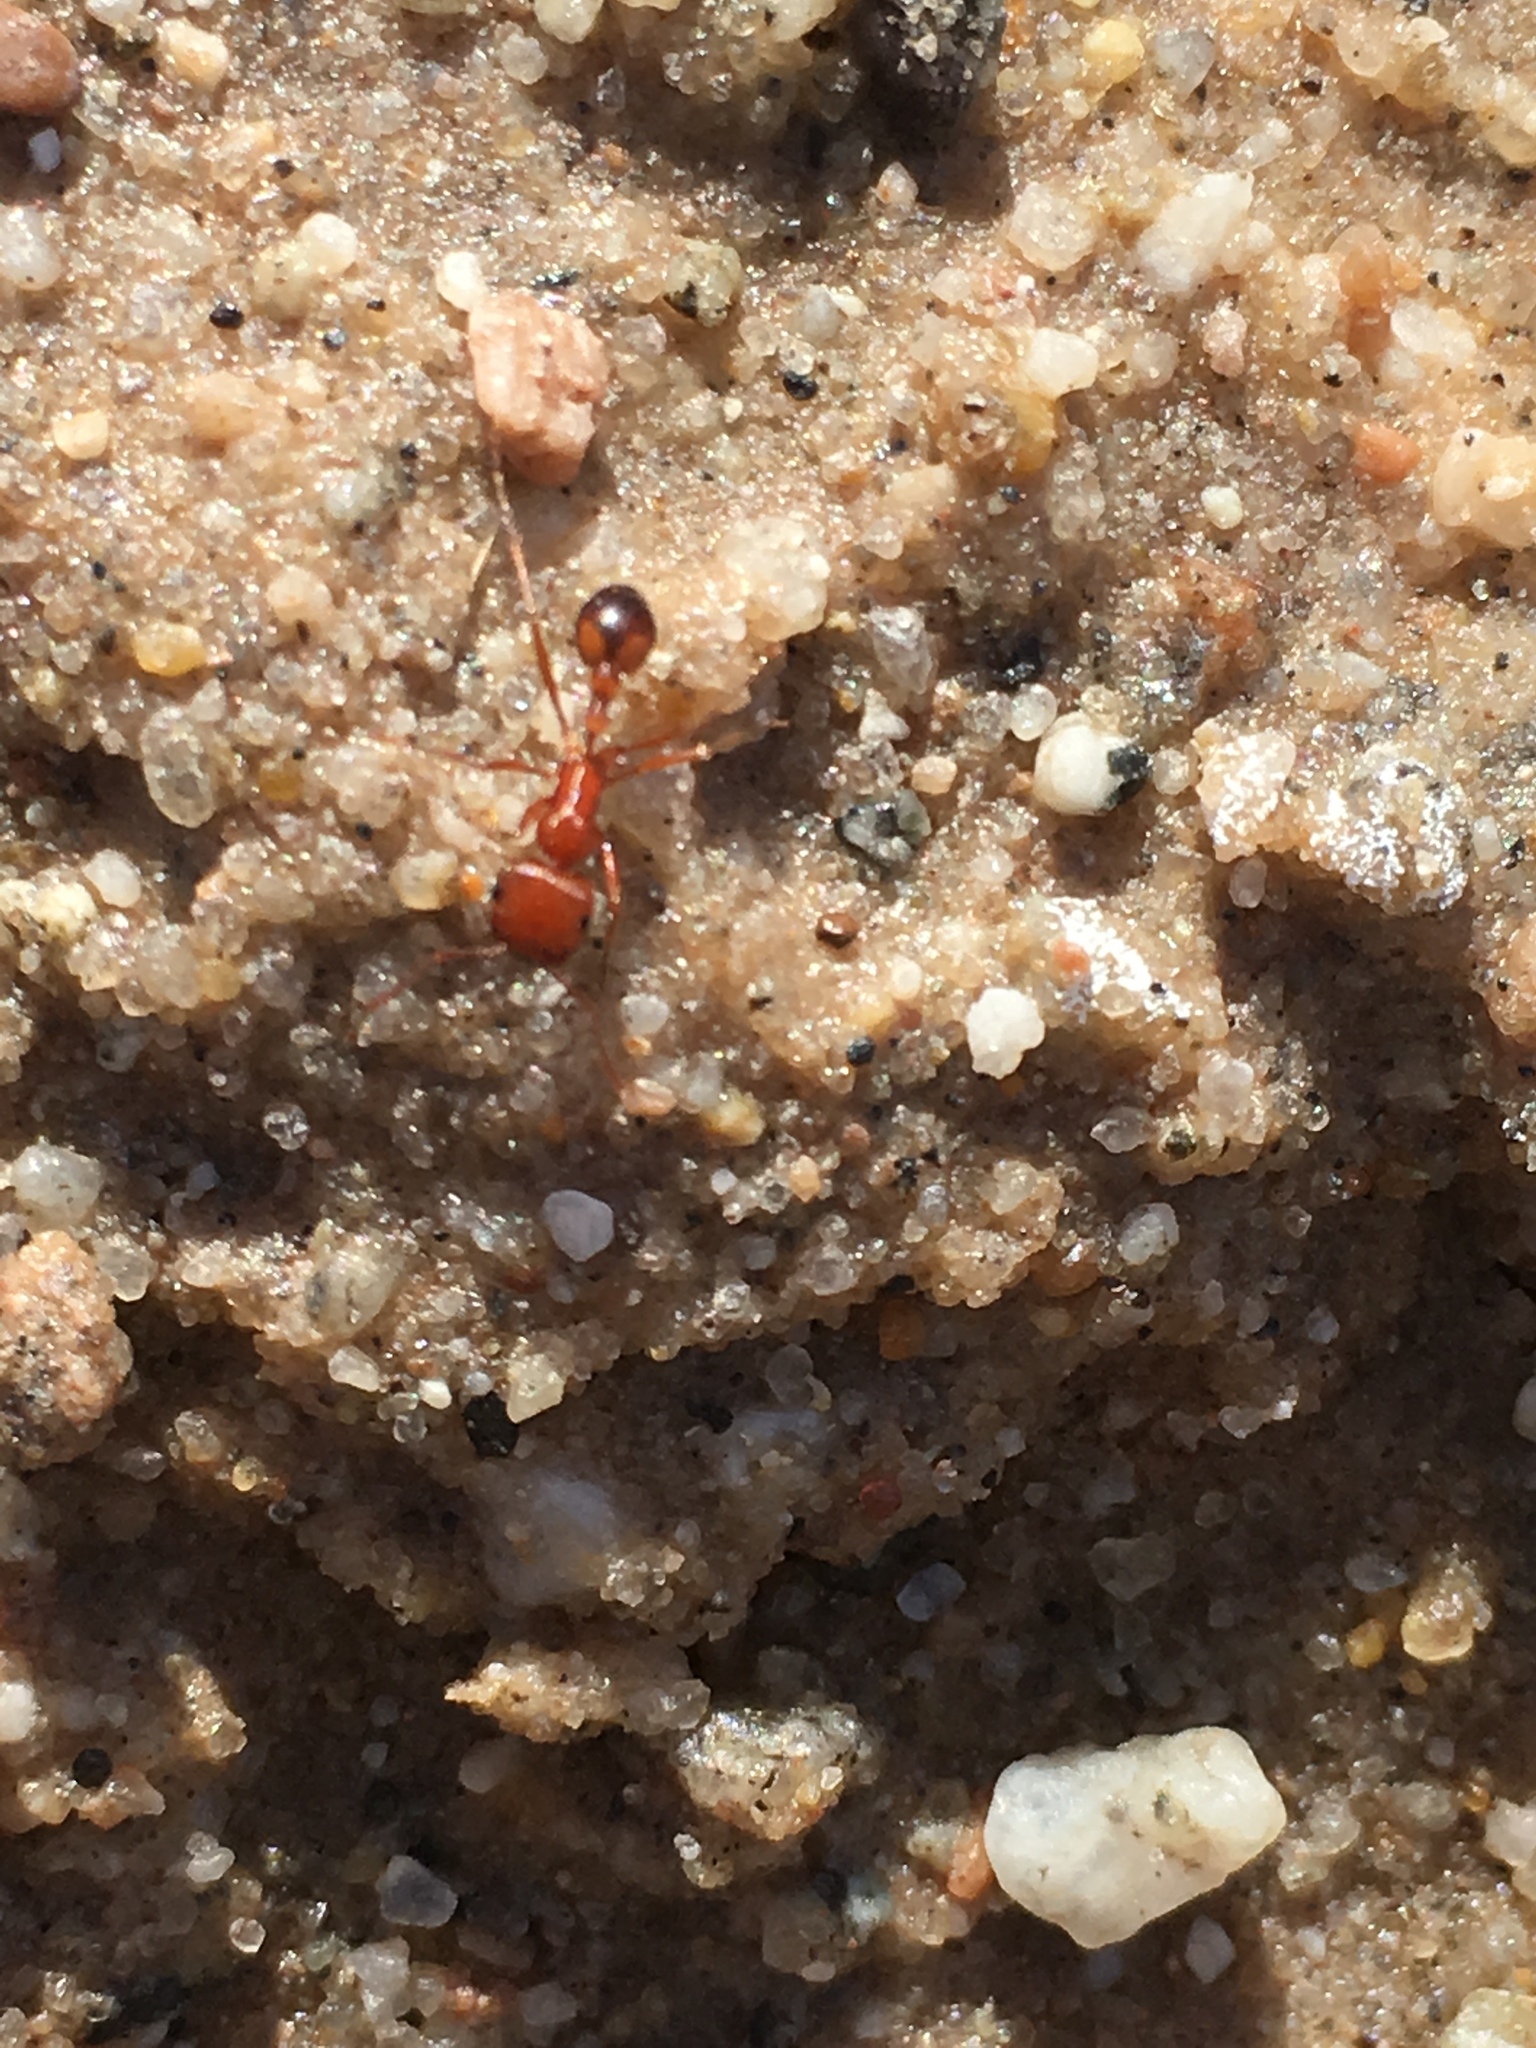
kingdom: Animalia
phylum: Arthropoda
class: Insecta
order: Hymenoptera
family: Formicidae
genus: Pogonomyrmex
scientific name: Pogonomyrmex californicus
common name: California harvester ant
